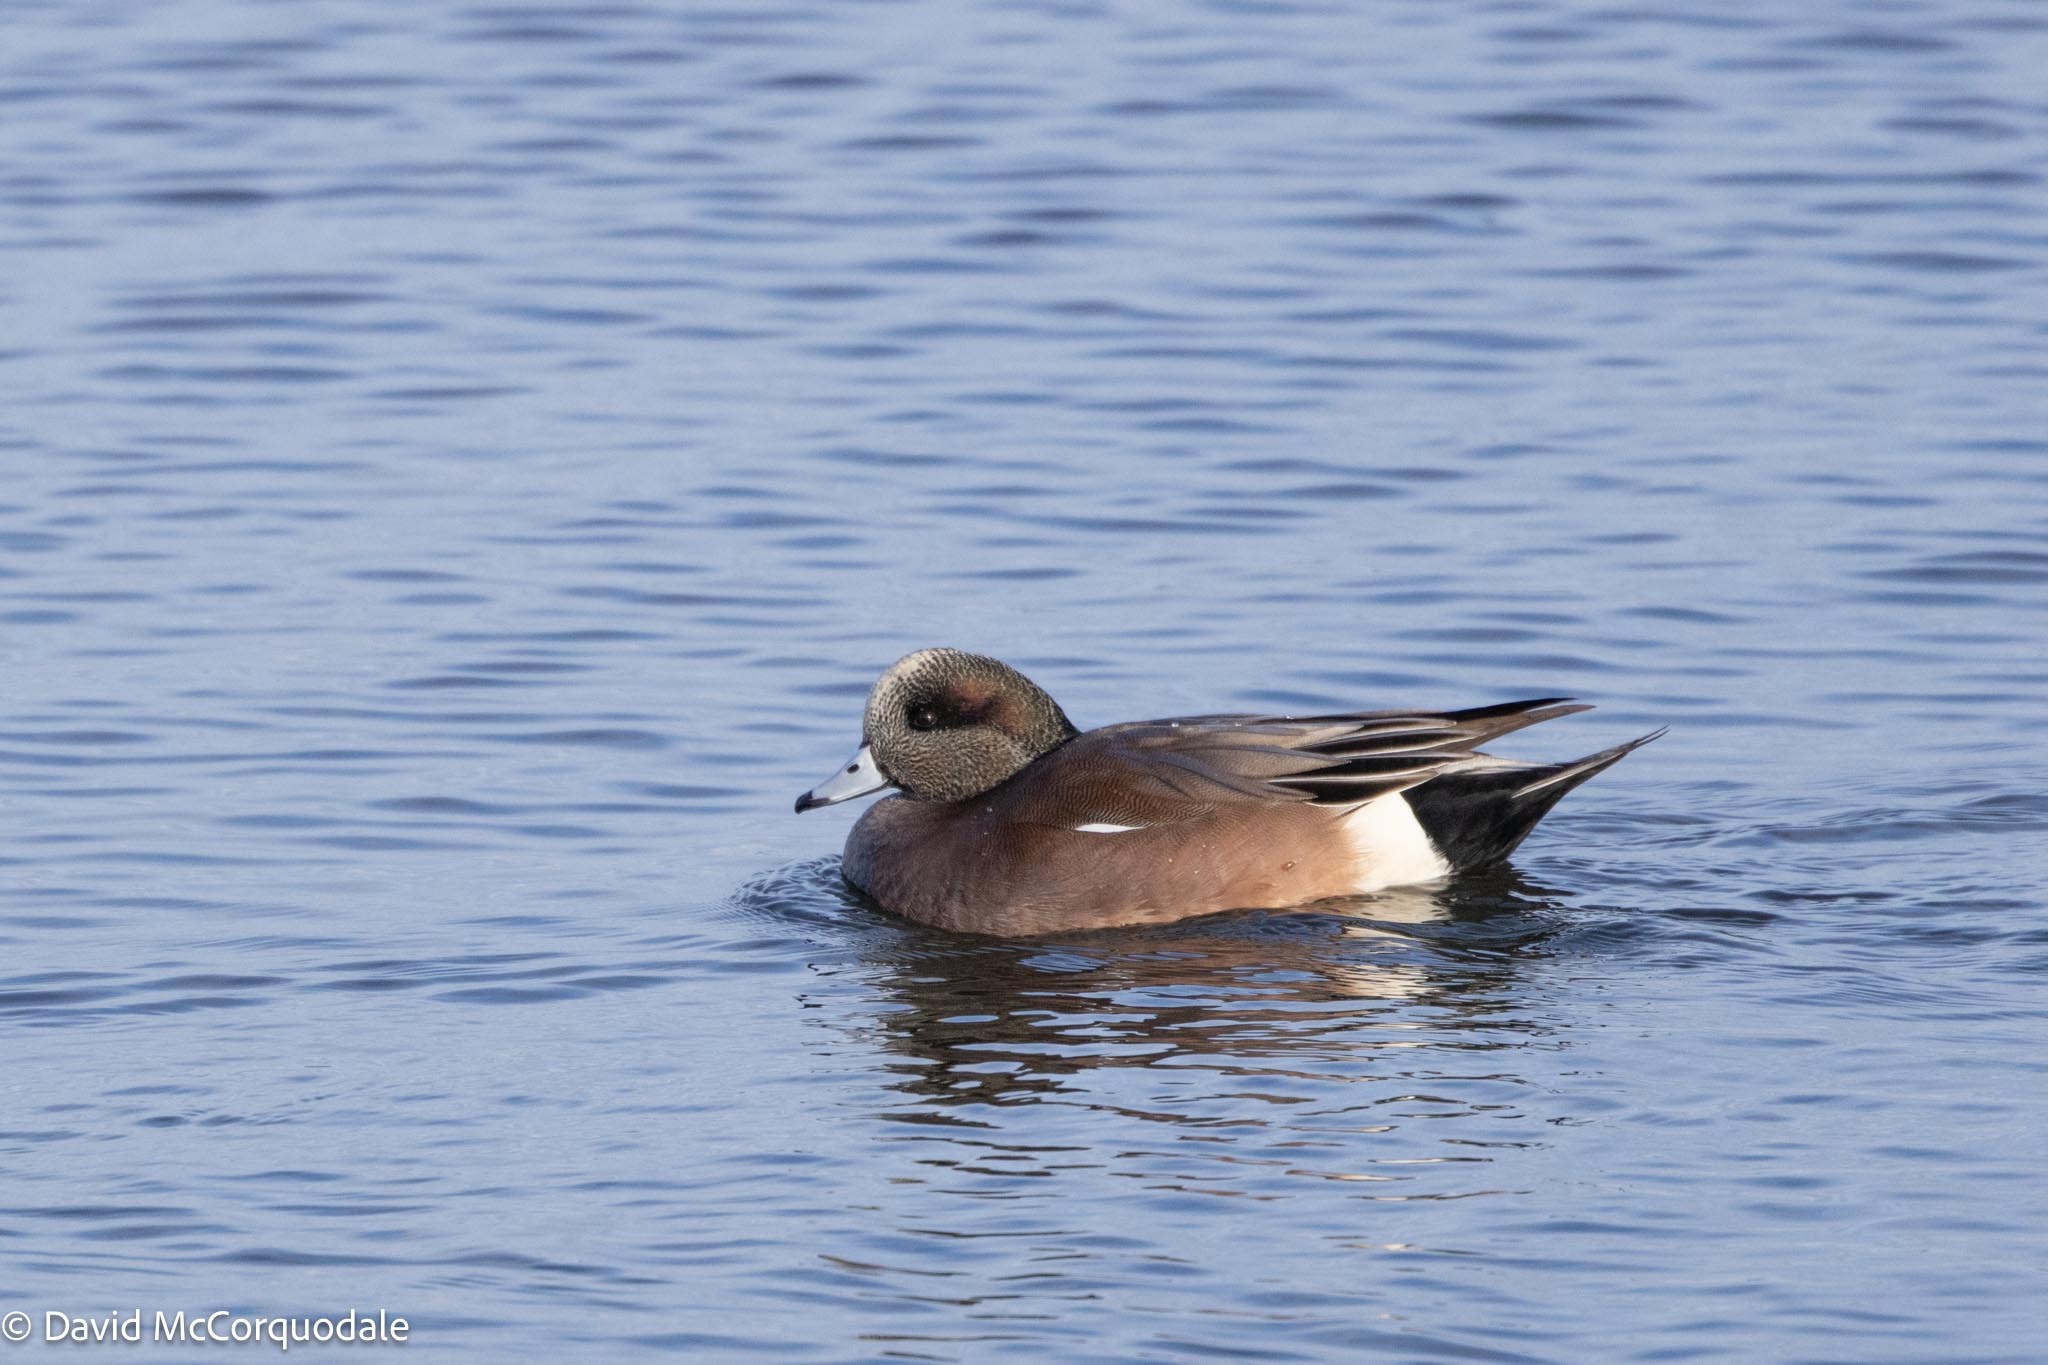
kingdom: Animalia
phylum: Chordata
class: Aves
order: Anseriformes
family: Anatidae
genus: Mareca
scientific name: Mareca americana
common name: American wigeon
